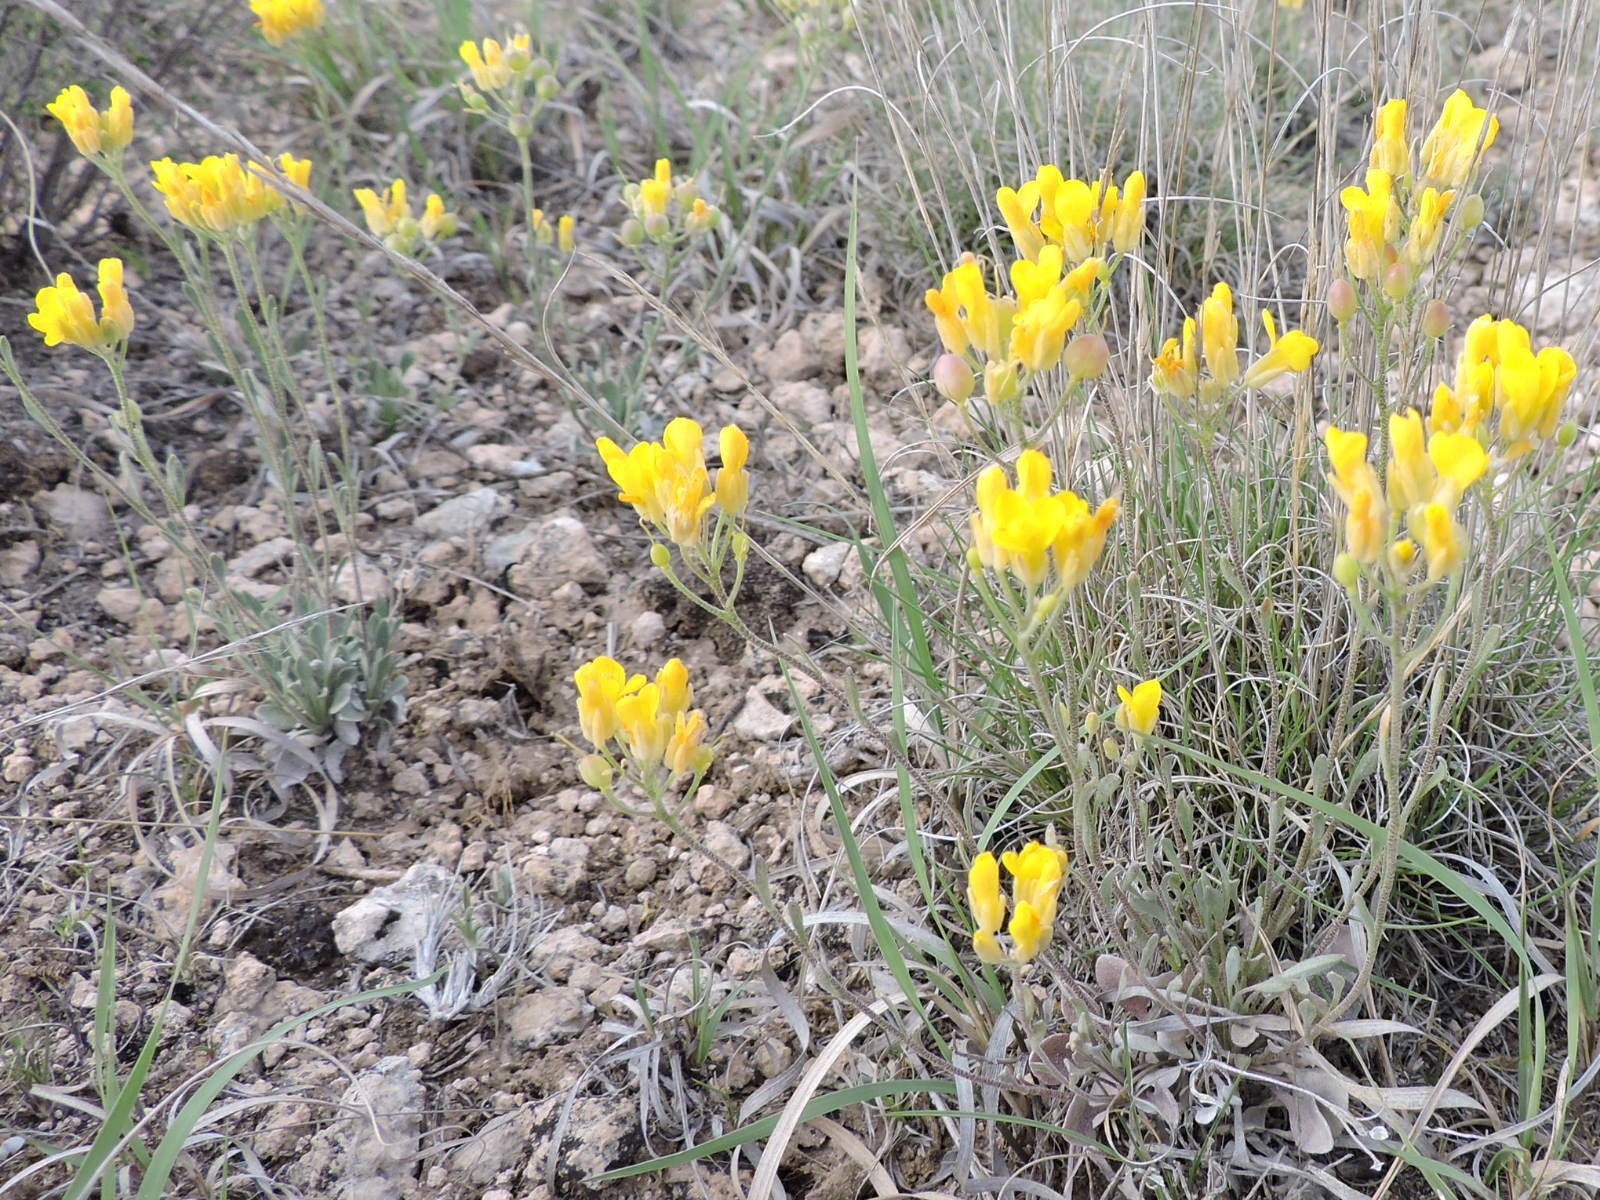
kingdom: Plantae
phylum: Tracheophyta
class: Magnoliopsida
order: Brassicales
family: Brassicaceae
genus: Physaria
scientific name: Physaria fendleri
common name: Fendler's bladderpod
